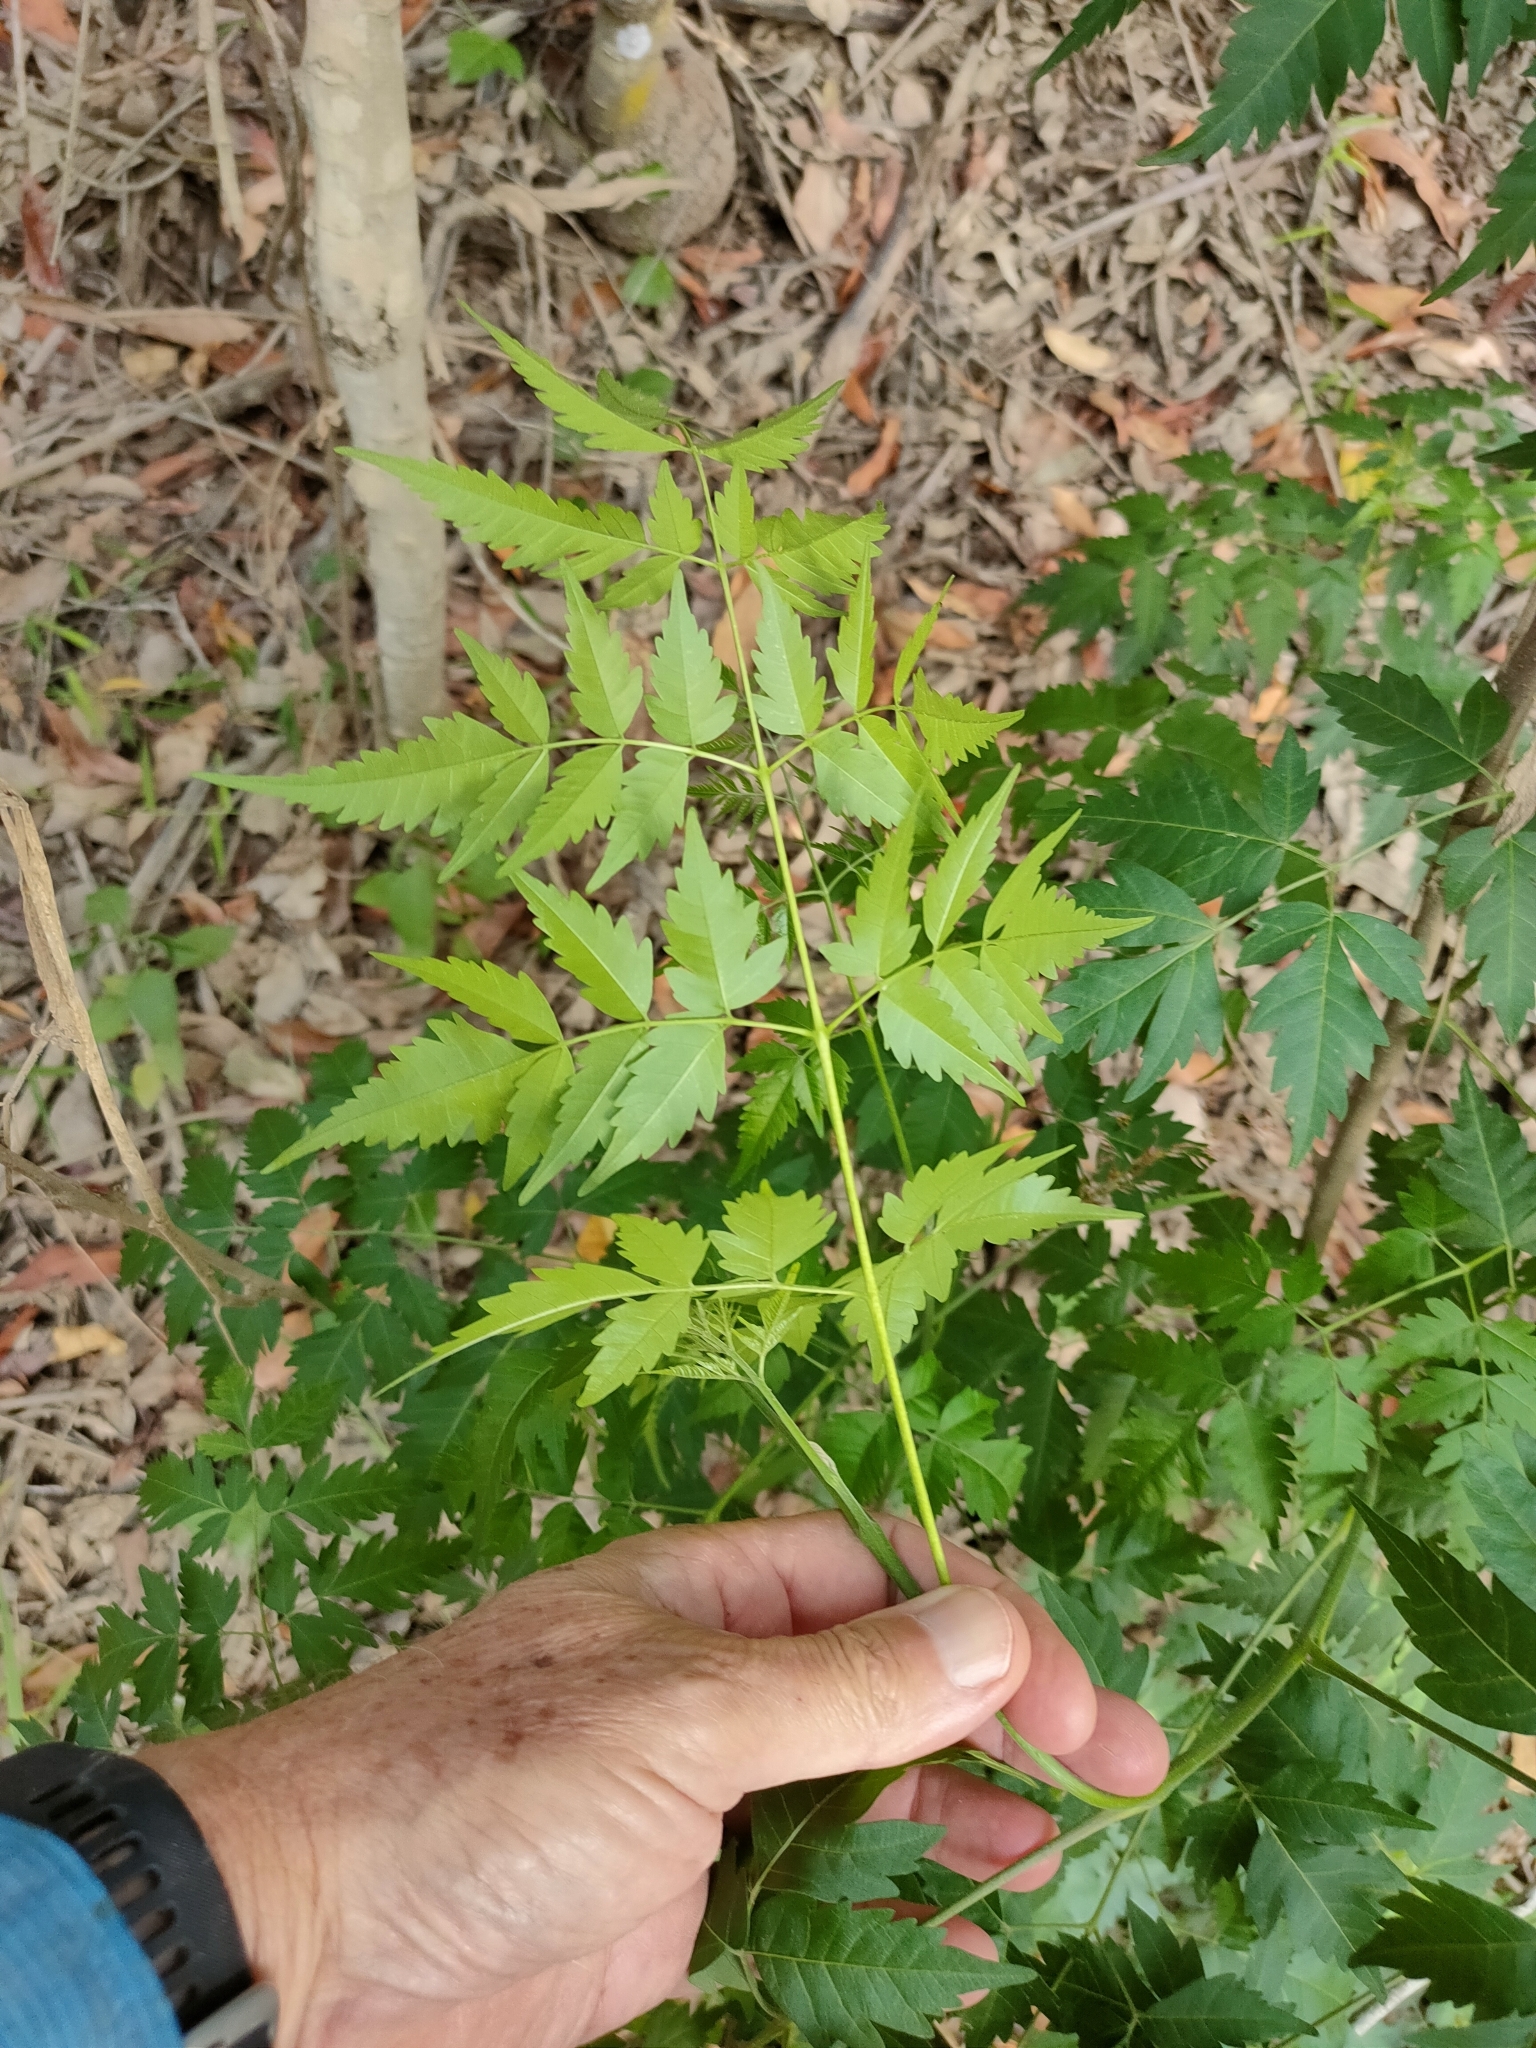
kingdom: Plantae
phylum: Tracheophyta
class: Magnoliopsida
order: Sapindales
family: Meliaceae
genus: Melia
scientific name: Melia azedarach
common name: Chinaberrytree
